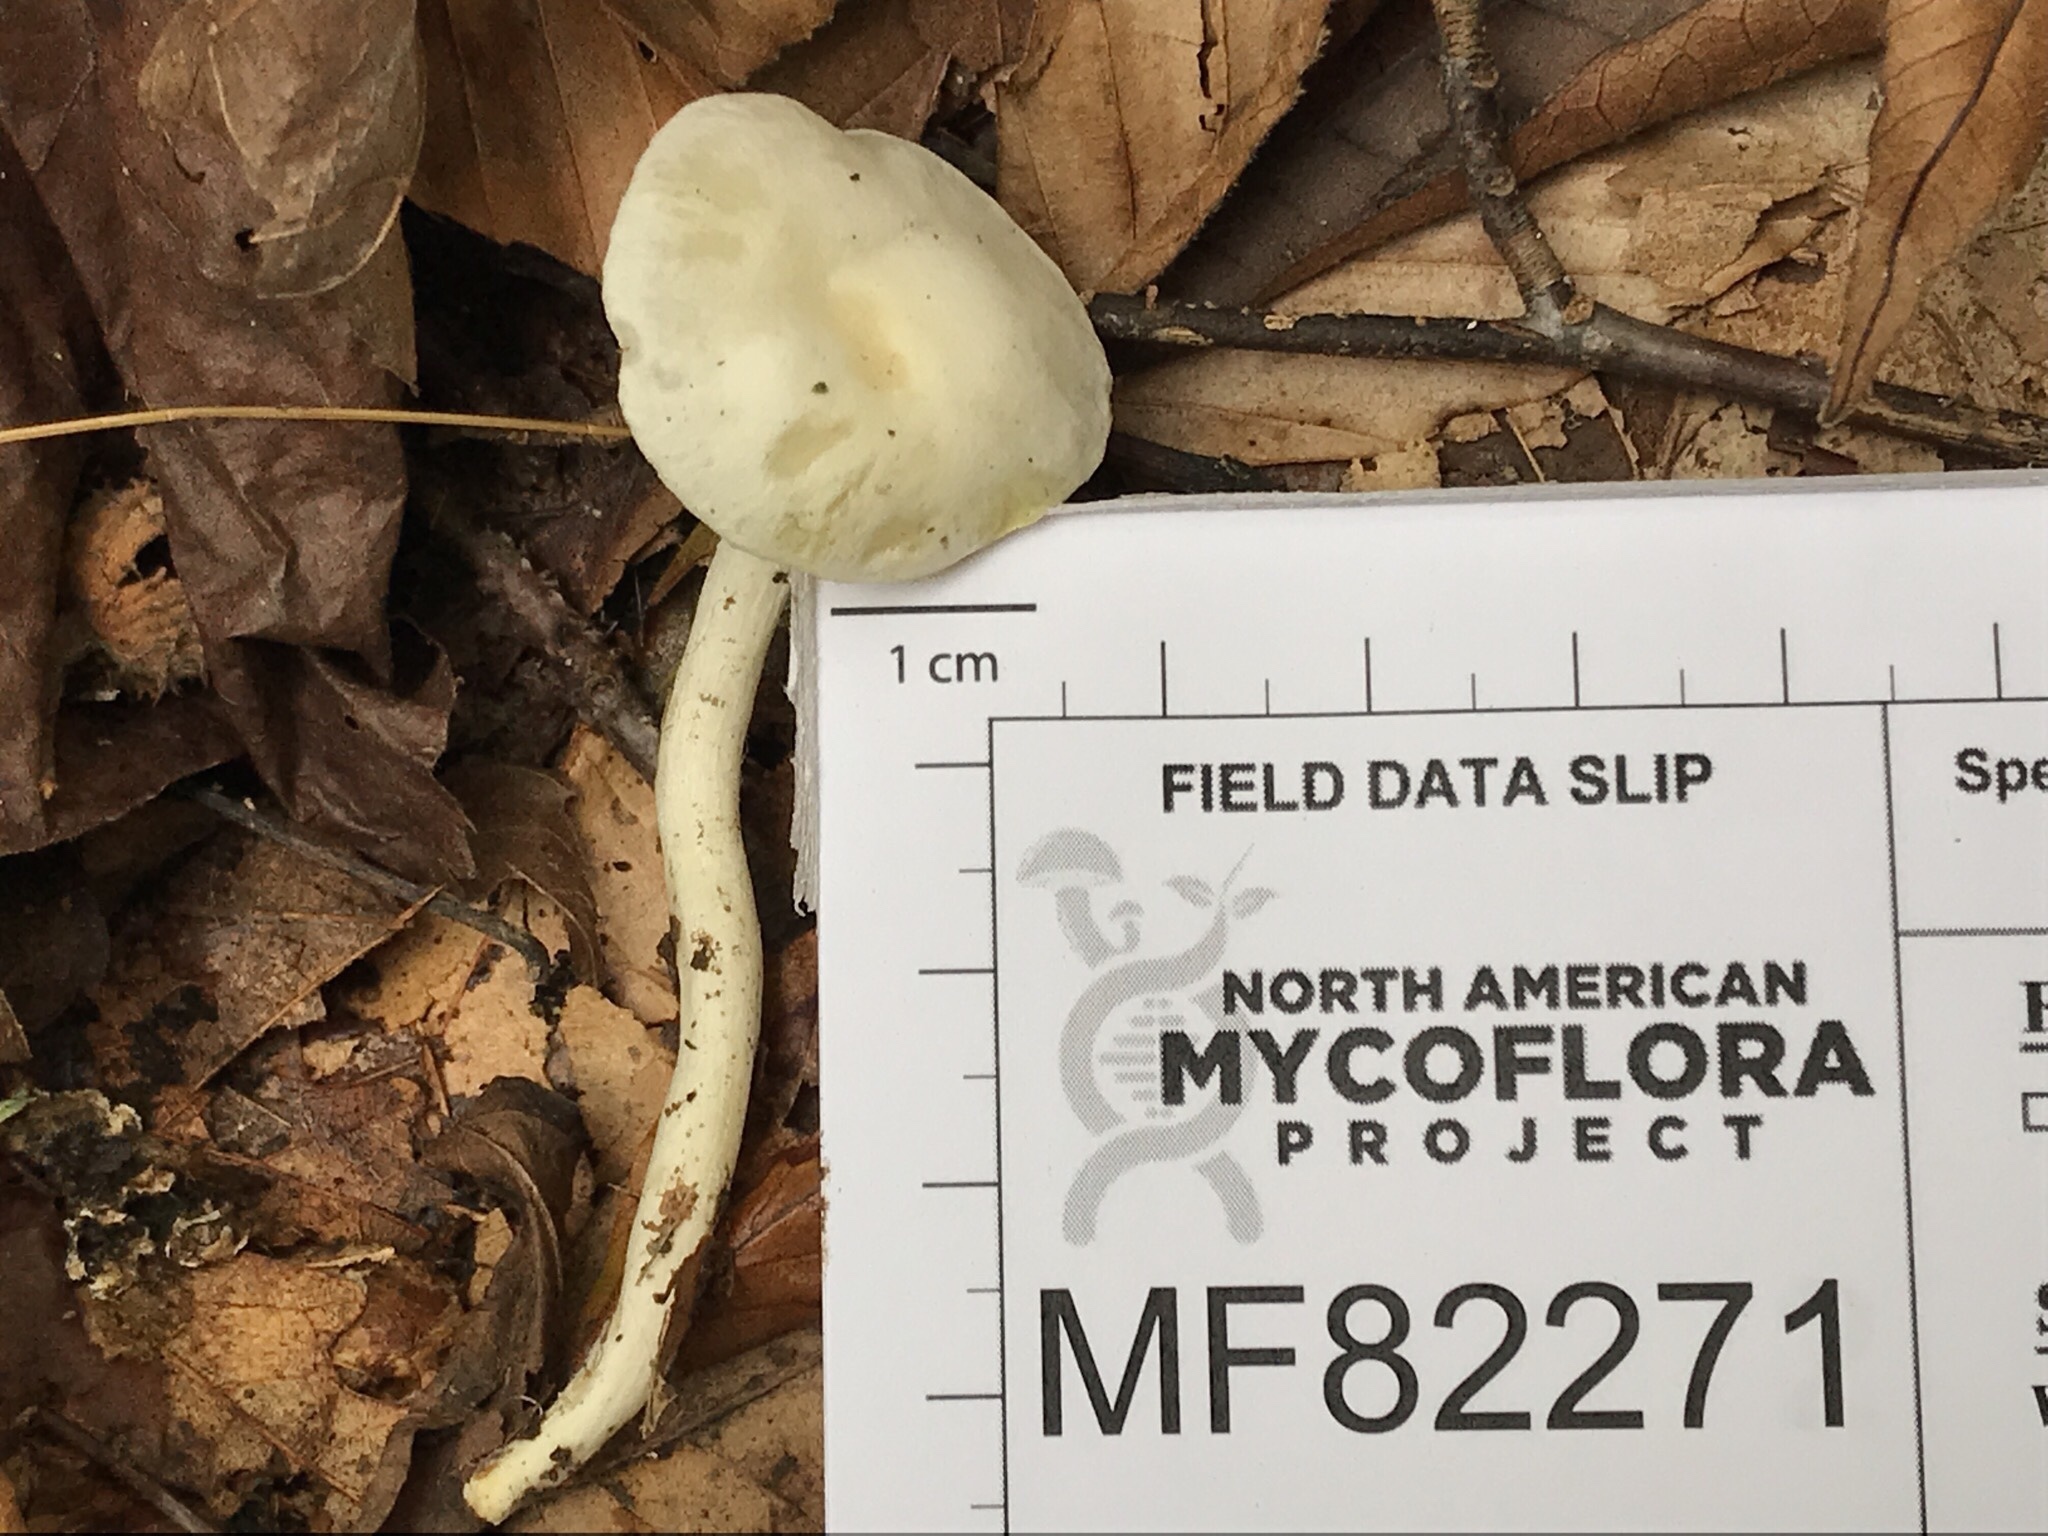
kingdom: Fungi
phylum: Basidiomycota
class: Agaricomycetes
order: Agaricales
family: Hygrophoraceae
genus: Hygrophorus
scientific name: Hygrophorus discoxanthus
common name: Yellowing woodwax
